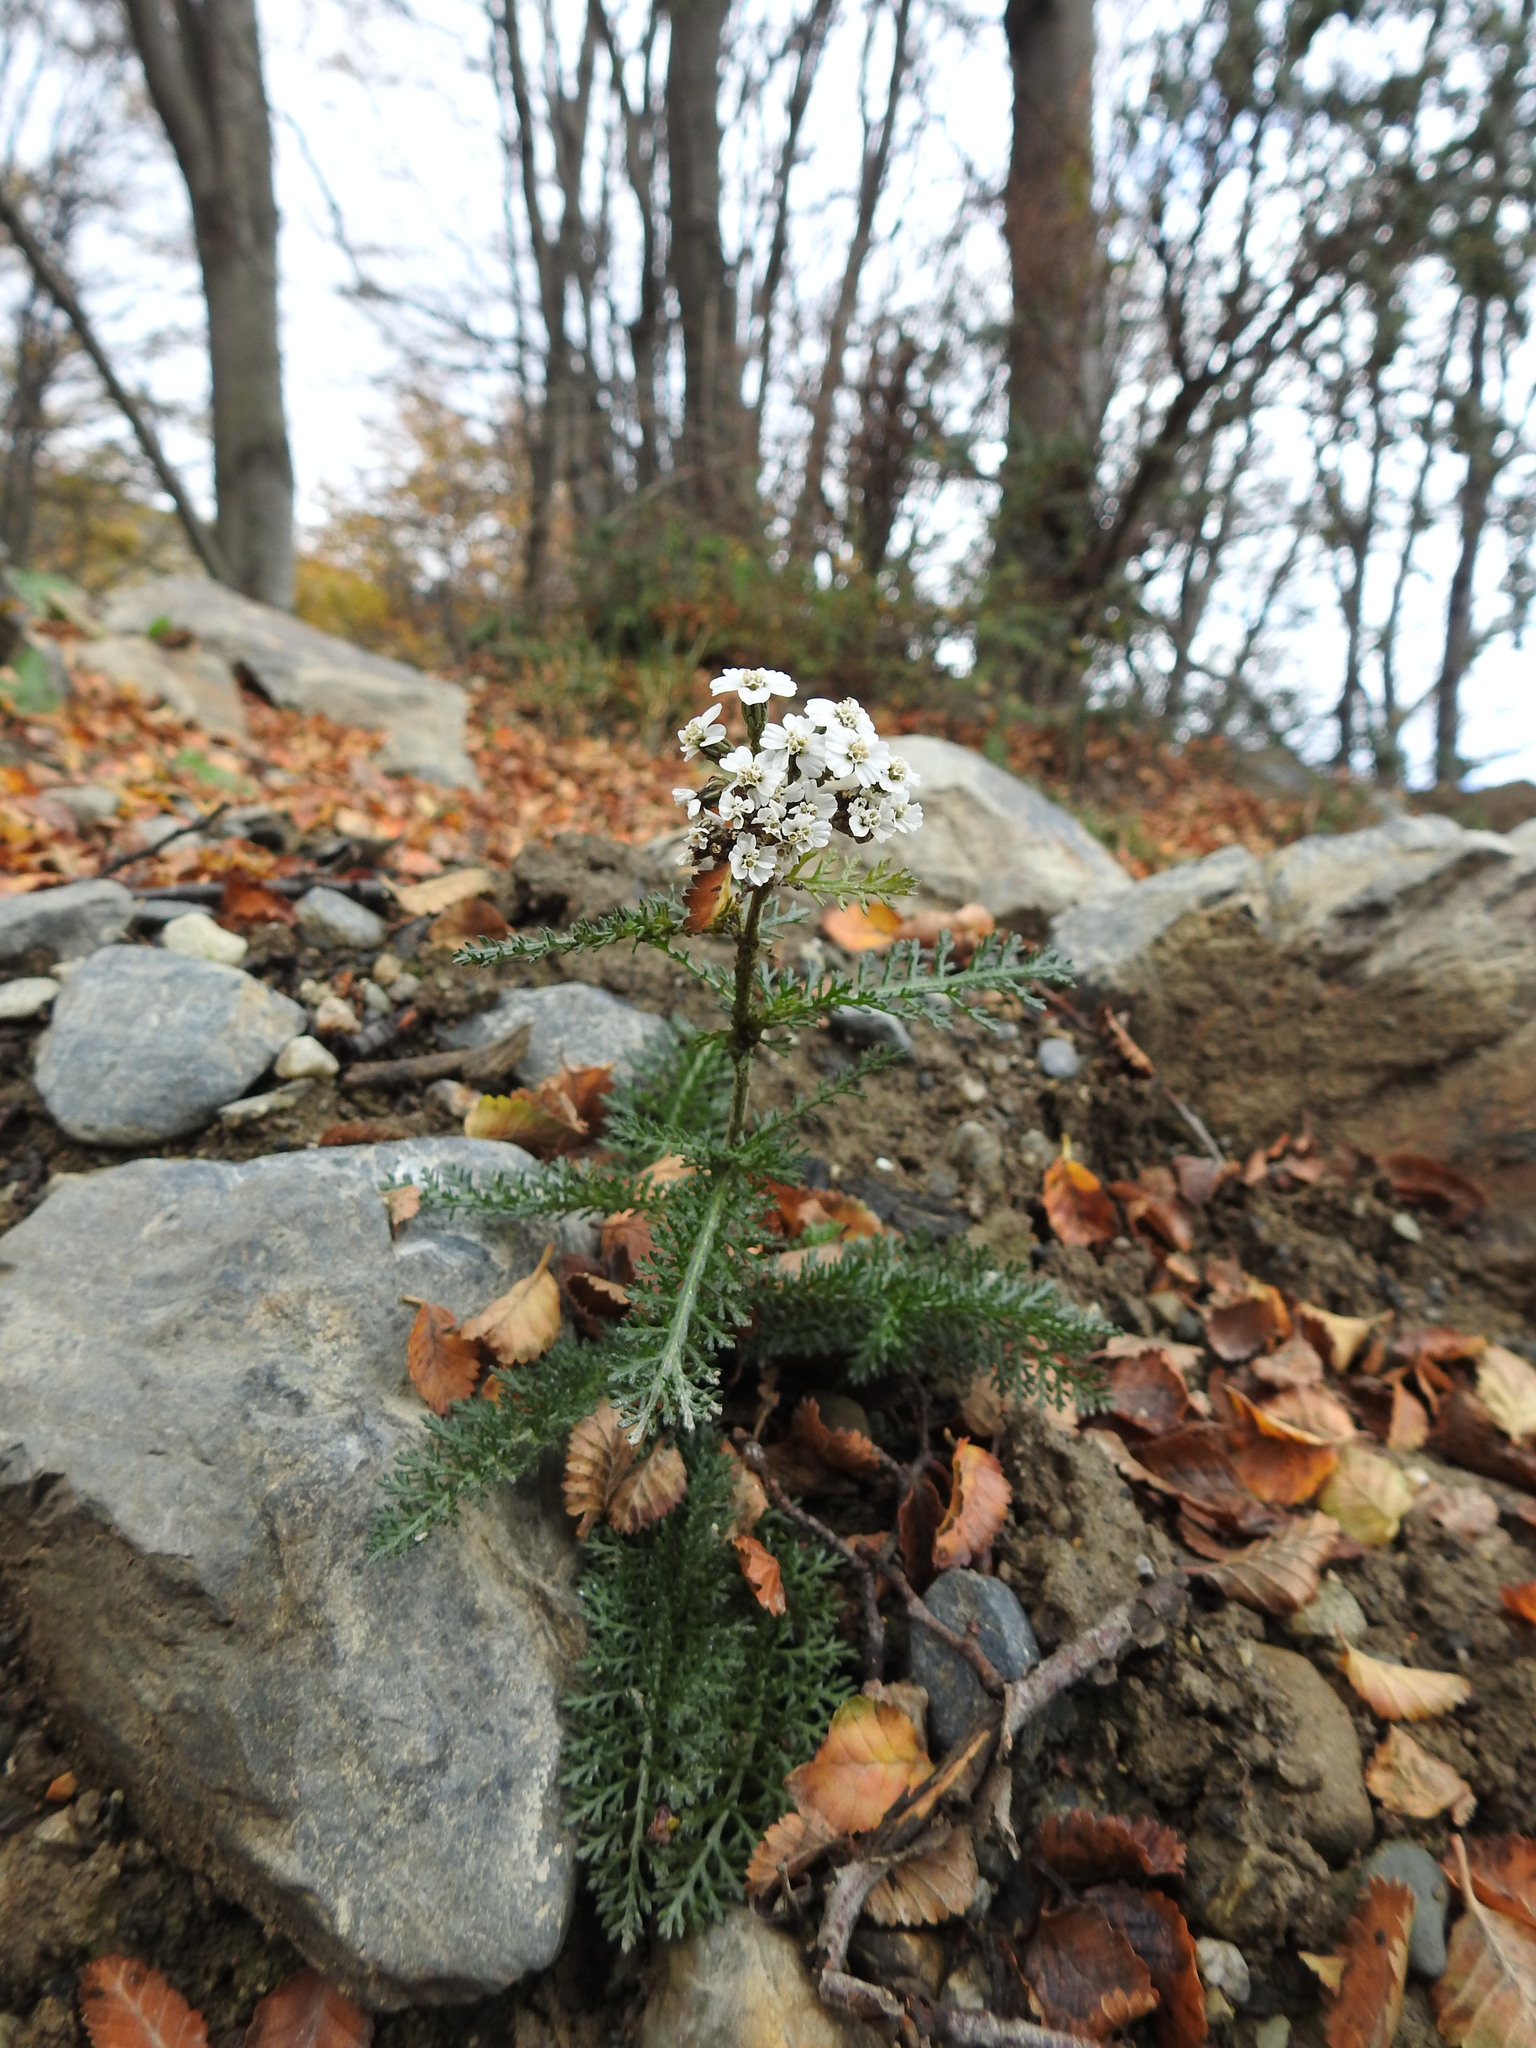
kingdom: Plantae
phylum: Tracheophyta
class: Magnoliopsida
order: Asterales
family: Asteraceae
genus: Achillea
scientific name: Achillea millefolium
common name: Yarrow
